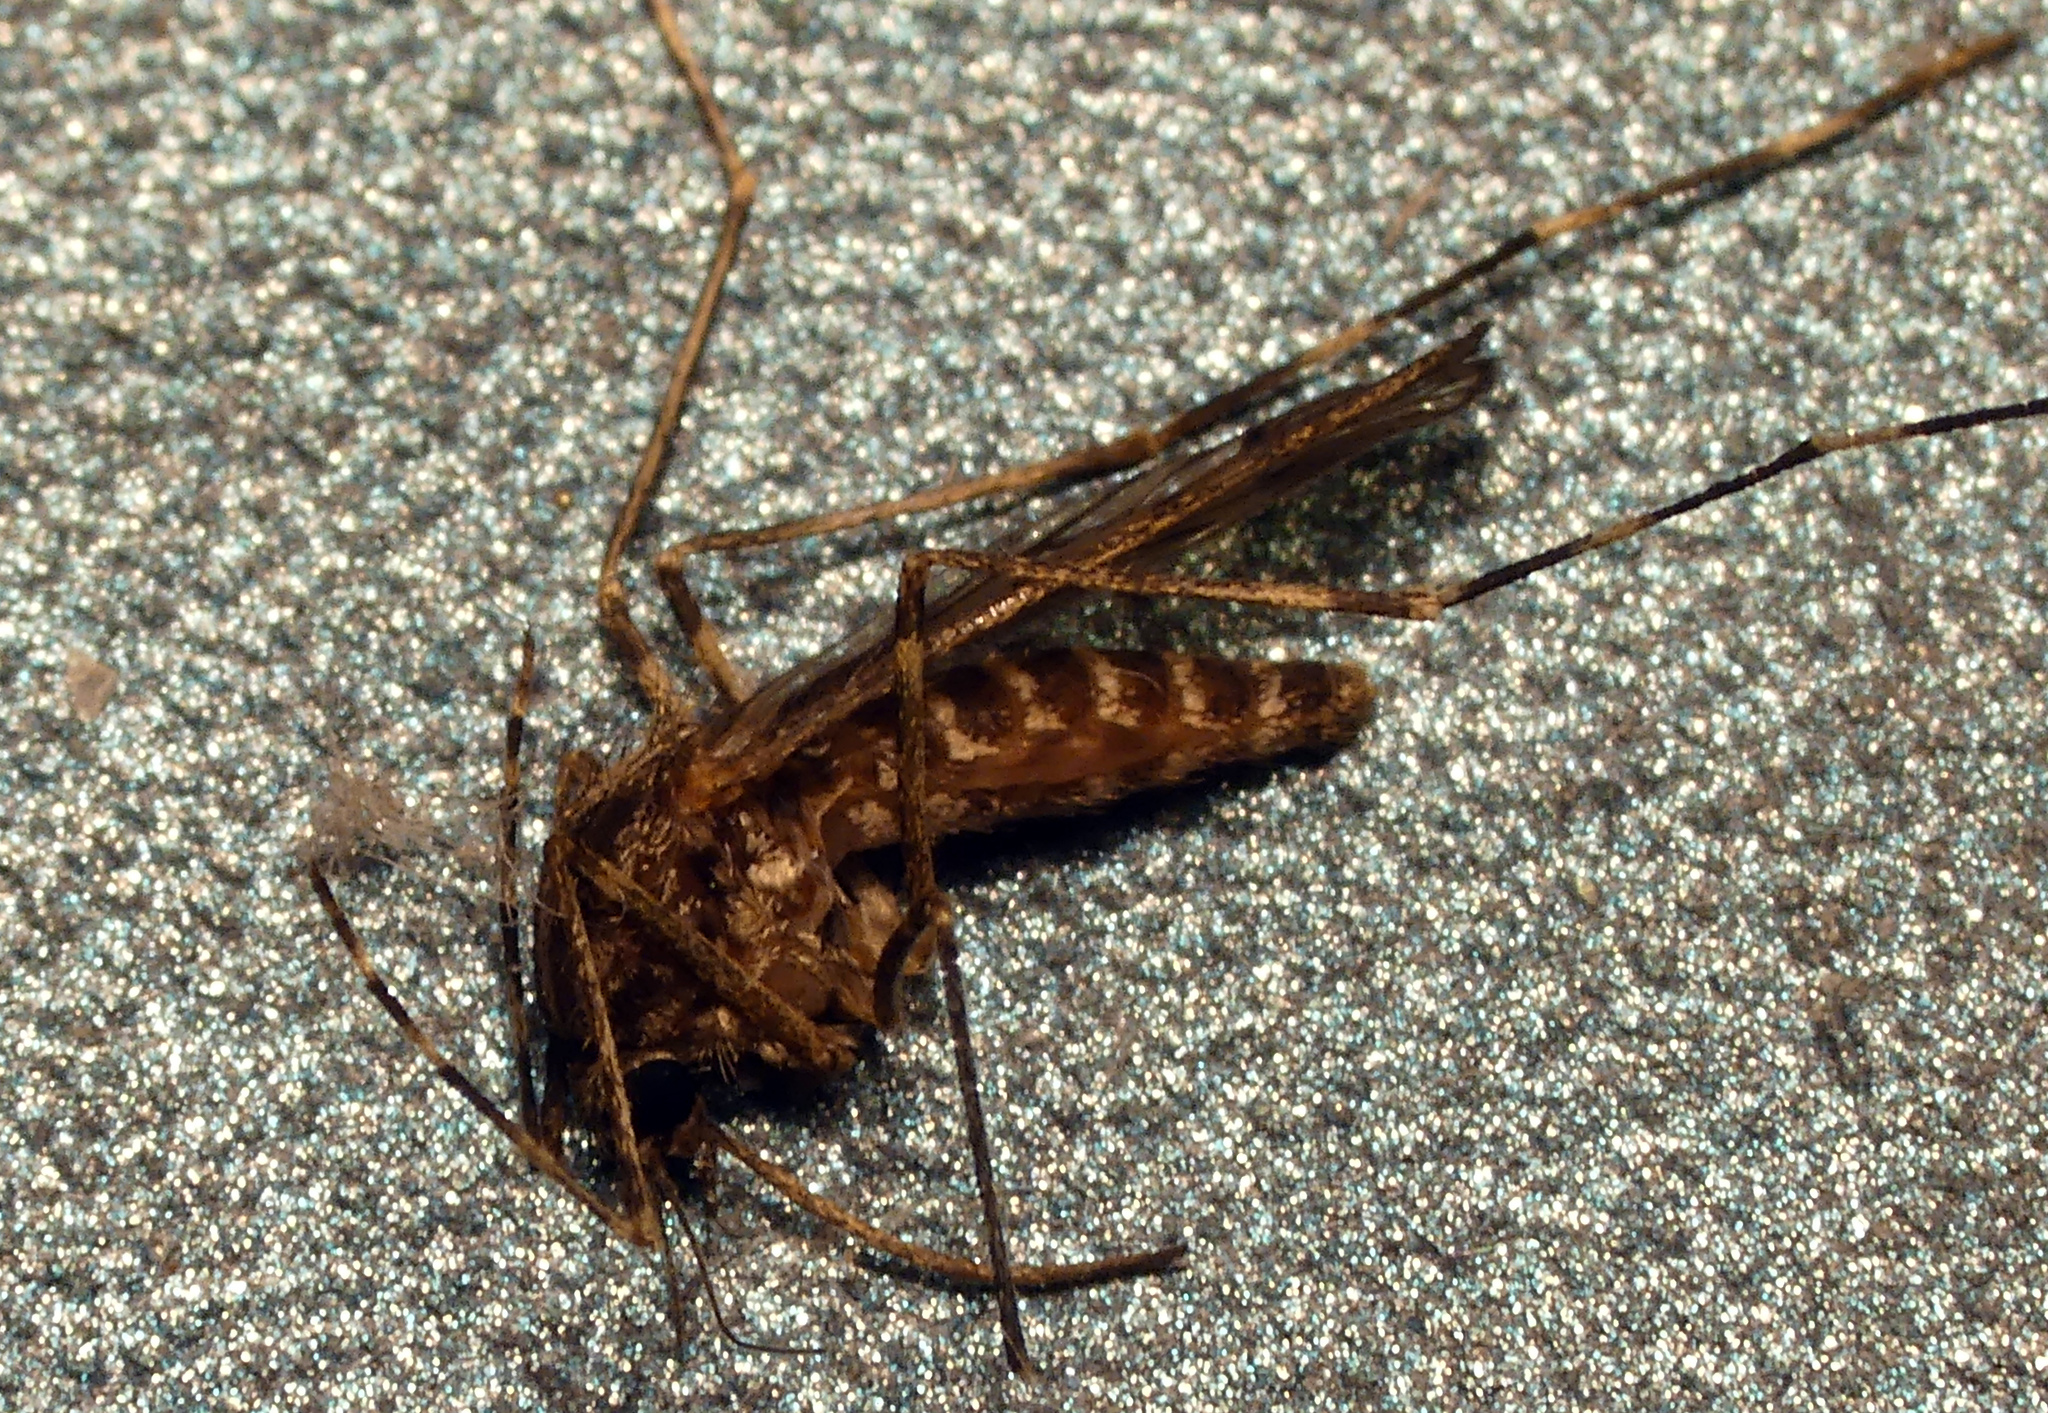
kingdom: Animalia
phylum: Arthropoda
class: Insecta
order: Diptera
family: Culicidae
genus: Culiseta
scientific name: Culiseta annulata
